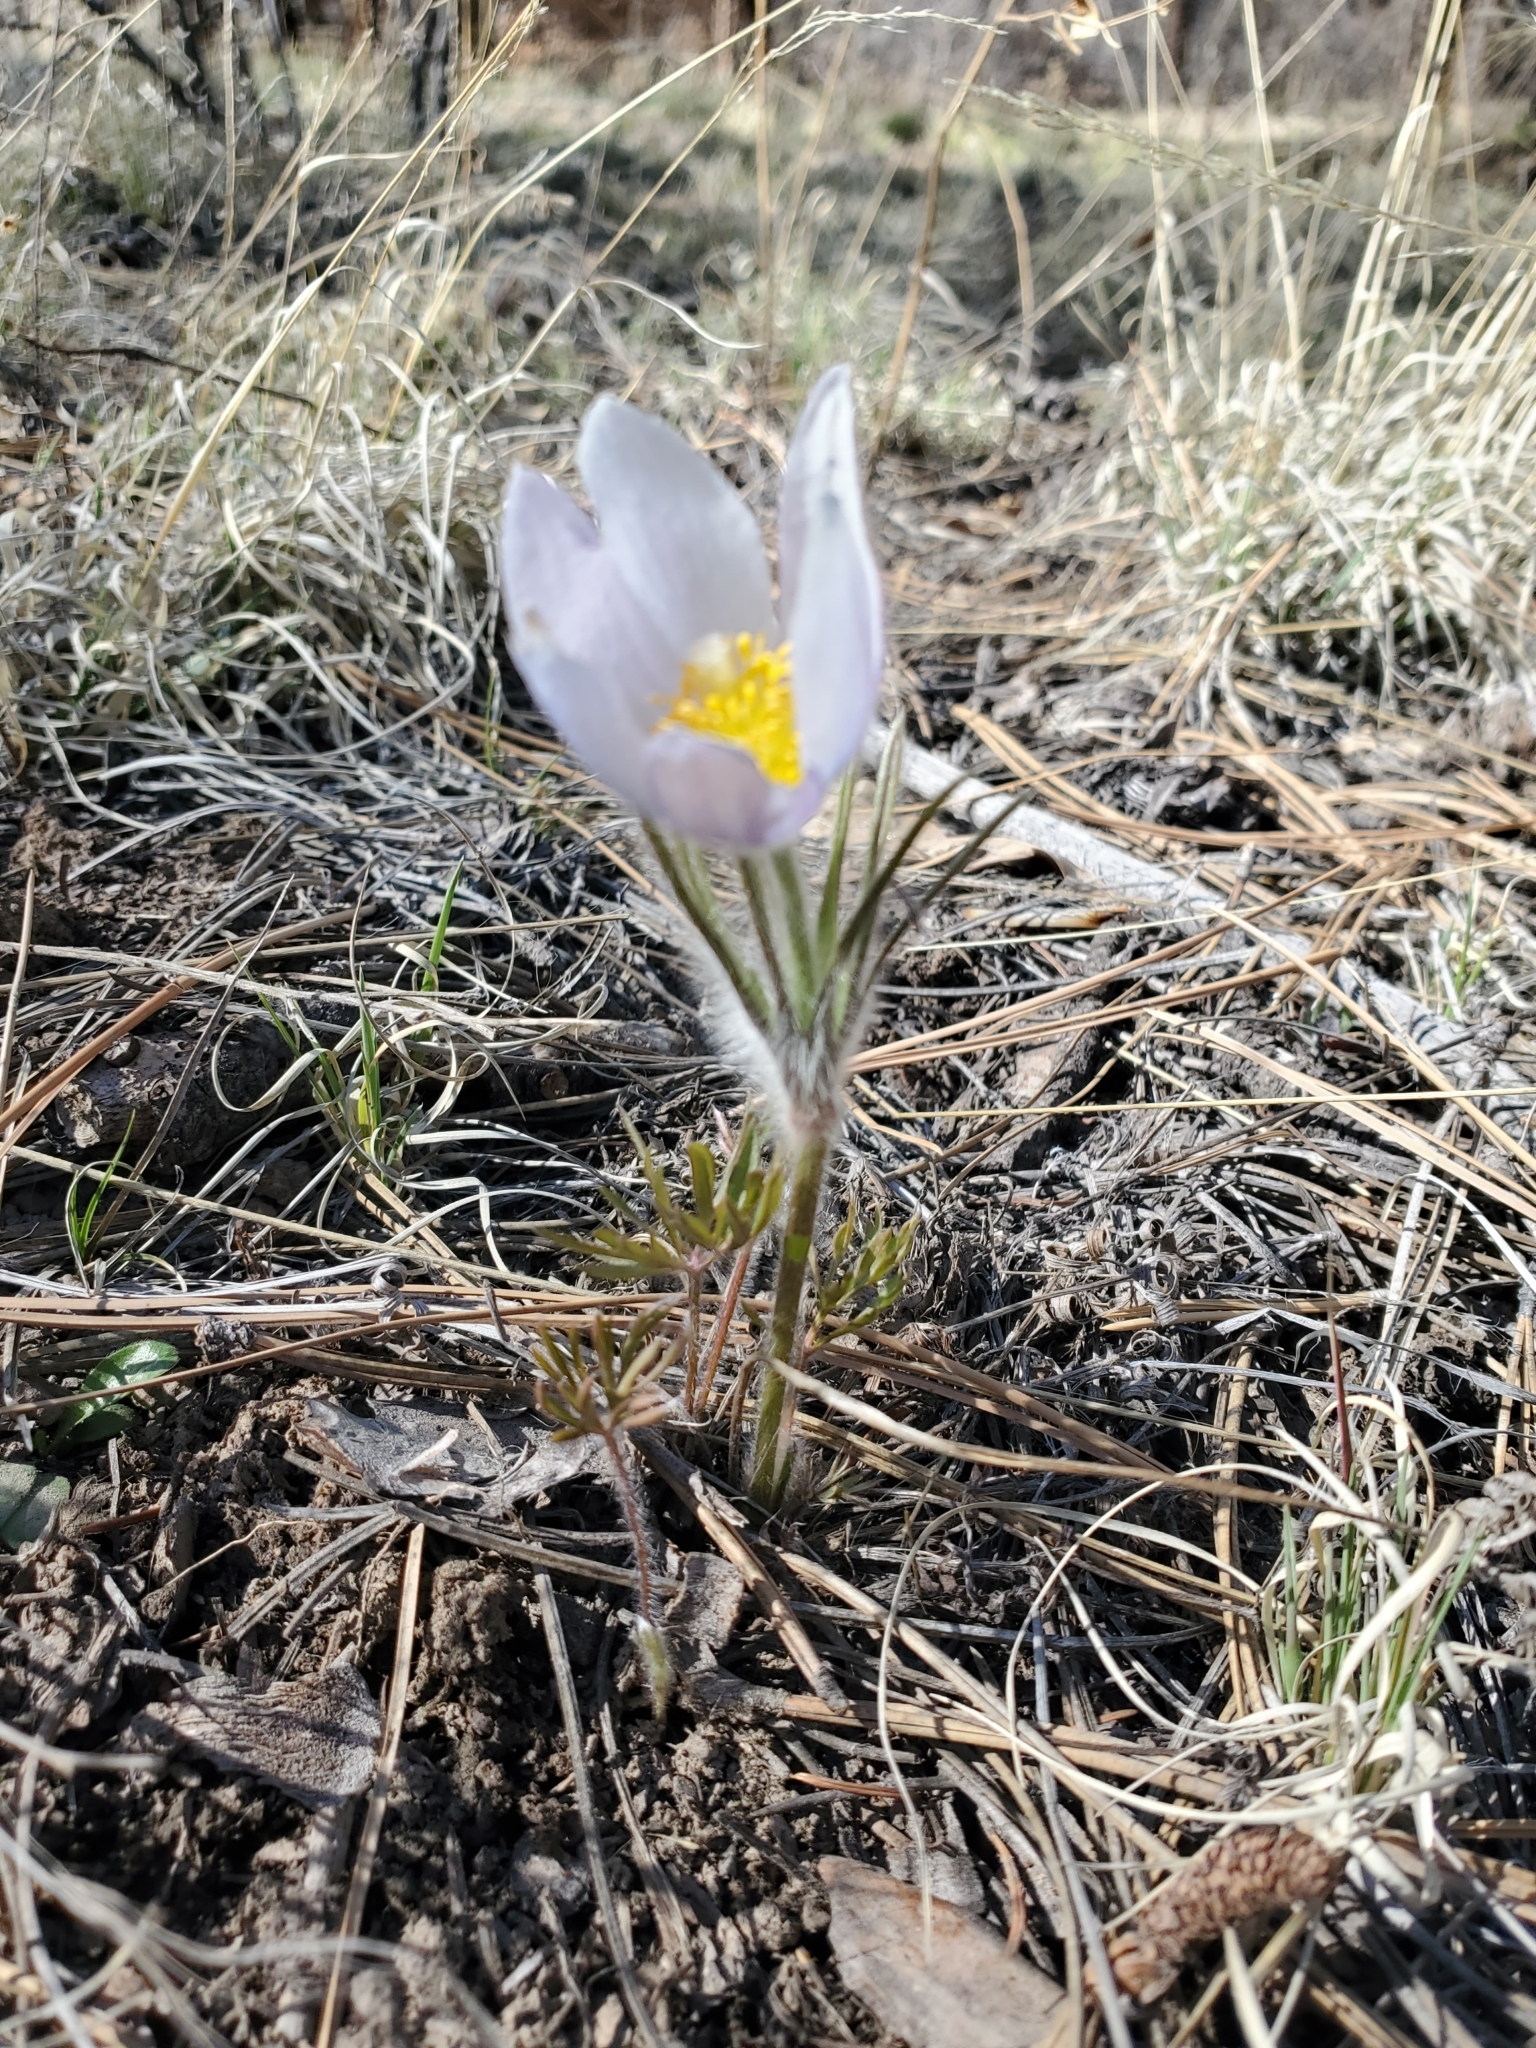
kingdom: Plantae
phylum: Tracheophyta
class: Magnoliopsida
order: Ranunculales
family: Ranunculaceae
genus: Pulsatilla
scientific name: Pulsatilla nuttalliana
